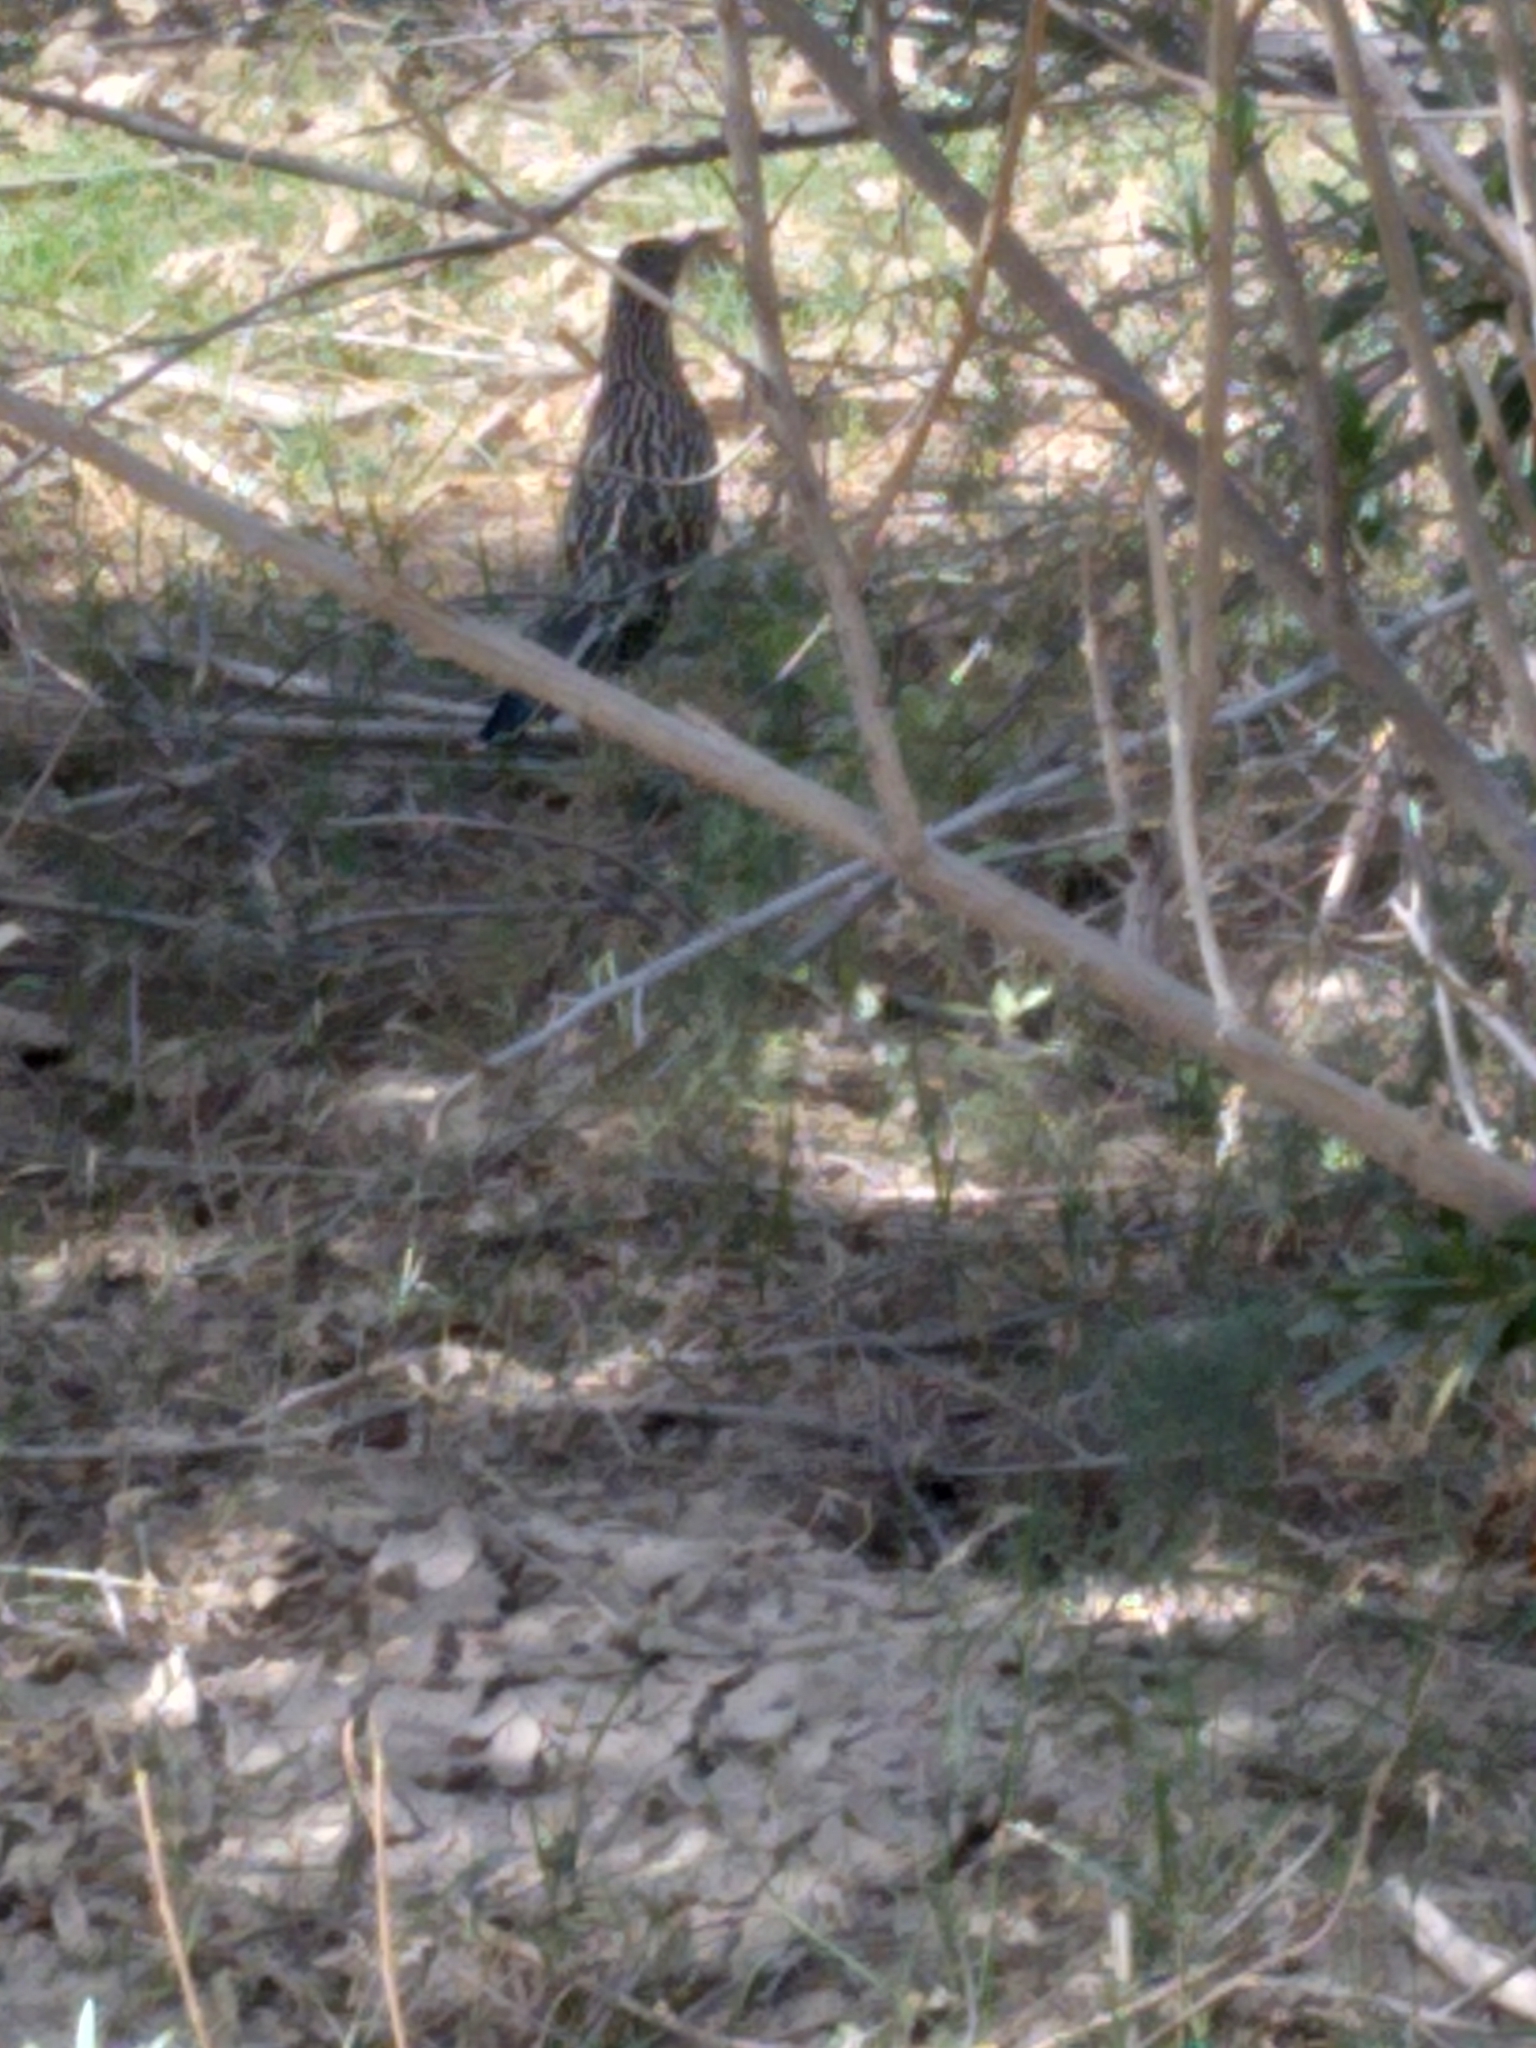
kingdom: Animalia
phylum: Chordata
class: Aves
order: Cuculiformes
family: Cuculidae
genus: Geococcyx
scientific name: Geococcyx californianus
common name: Greater roadrunner
